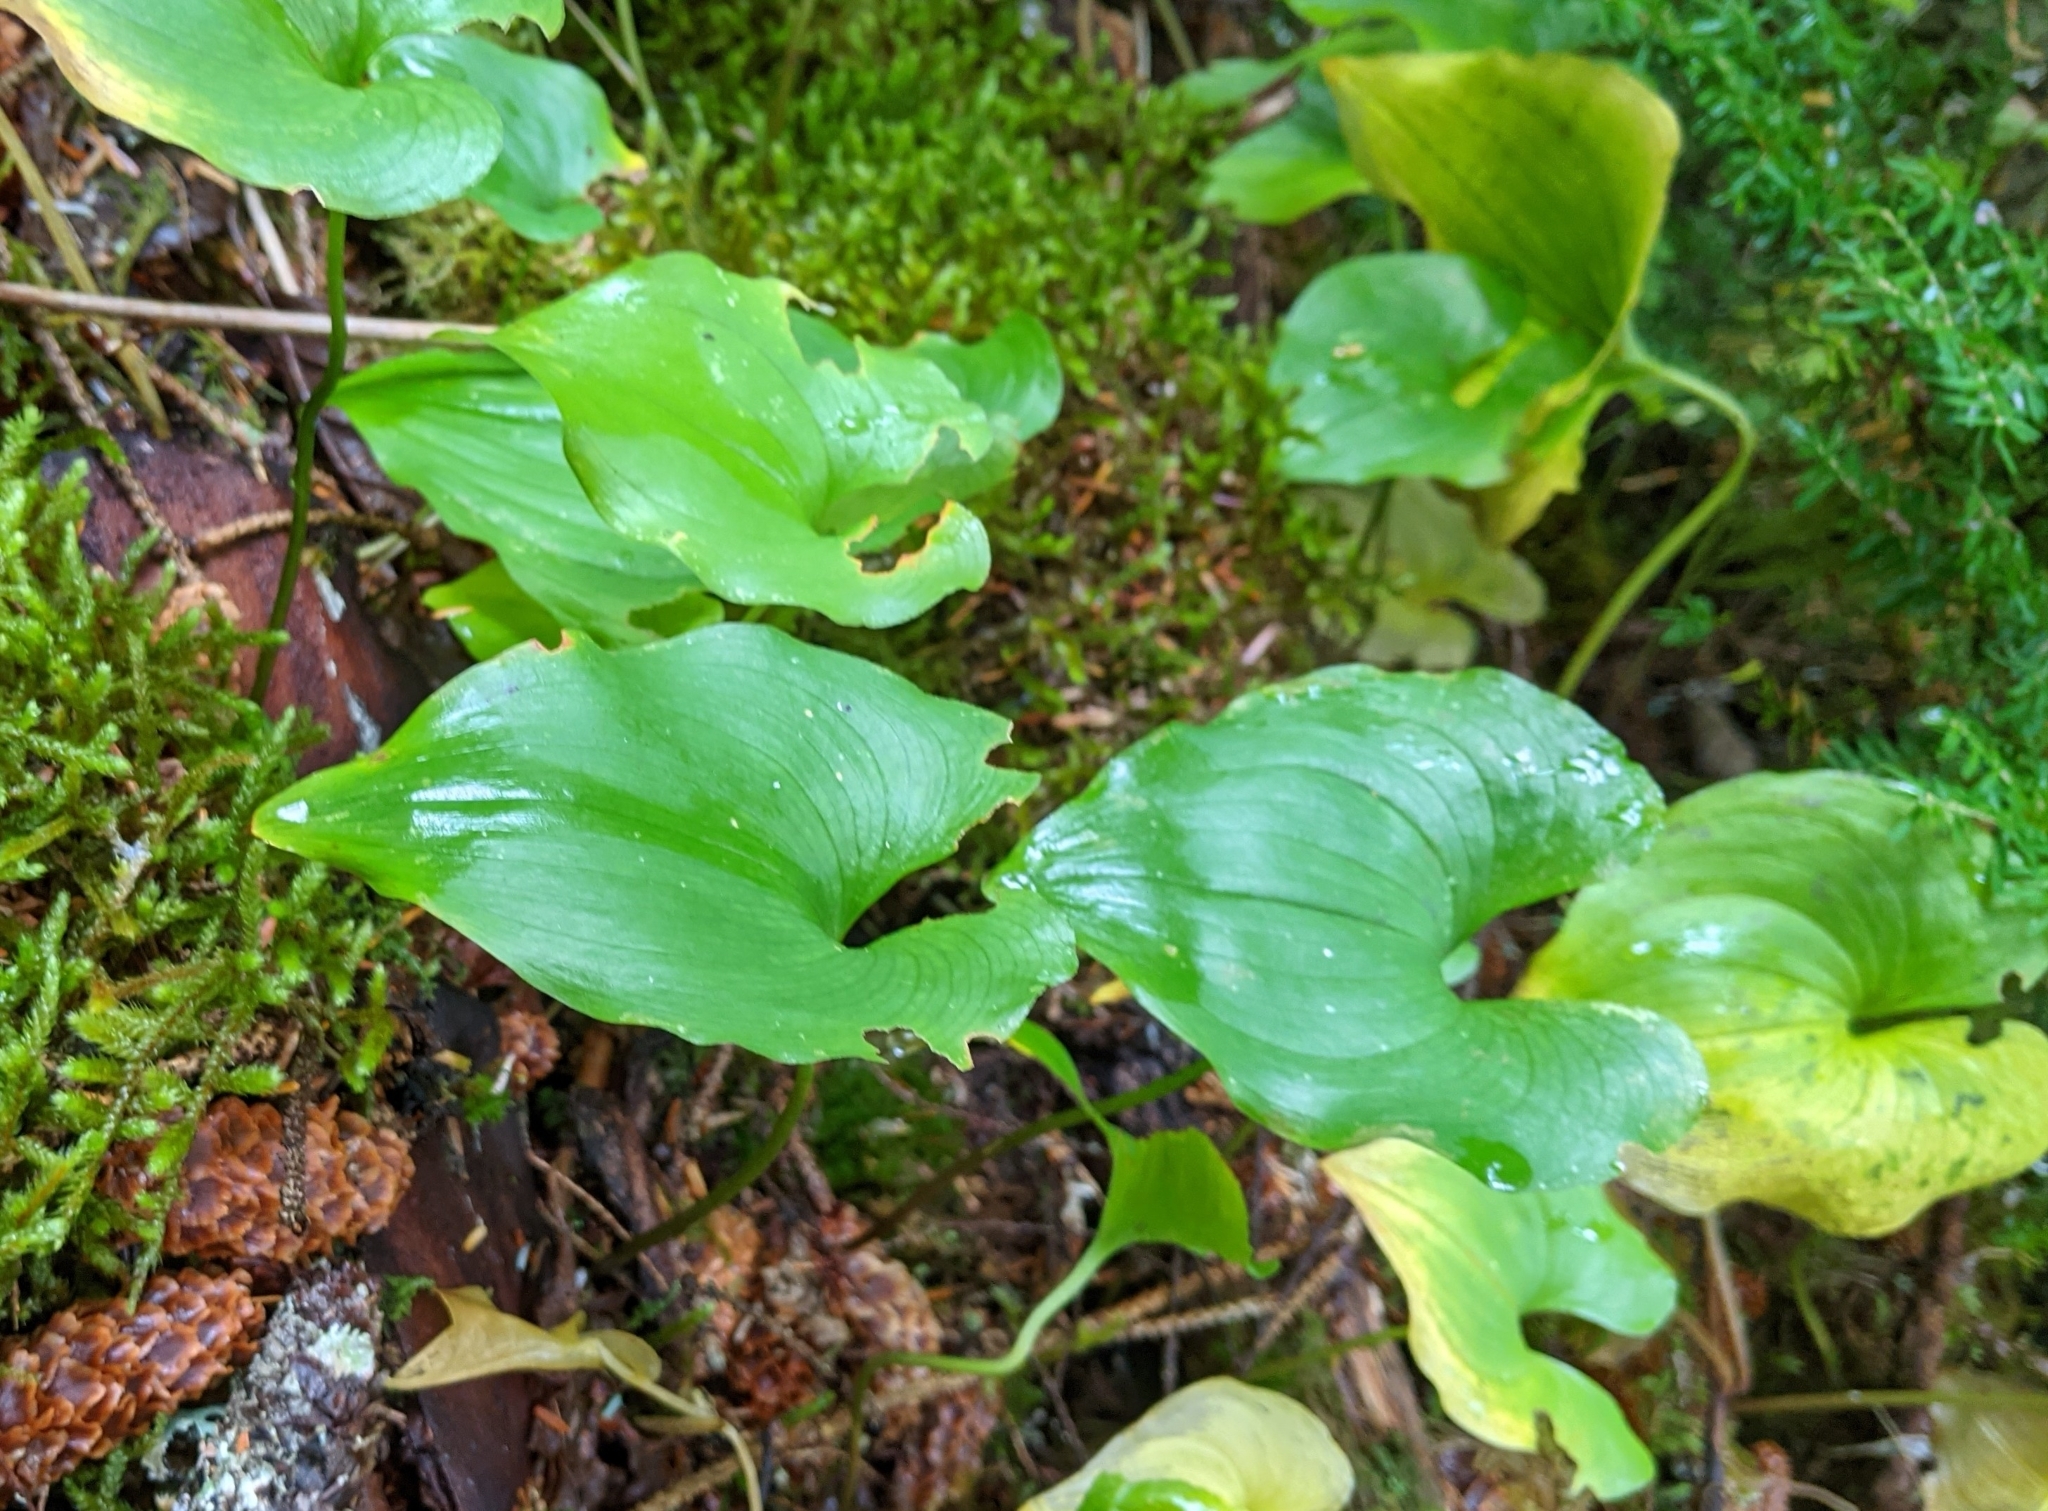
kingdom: Plantae
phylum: Tracheophyta
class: Liliopsida
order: Asparagales
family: Asparagaceae
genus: Maianthemum
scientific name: Maianthemum dilatatum
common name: False lily-of-the-valley
